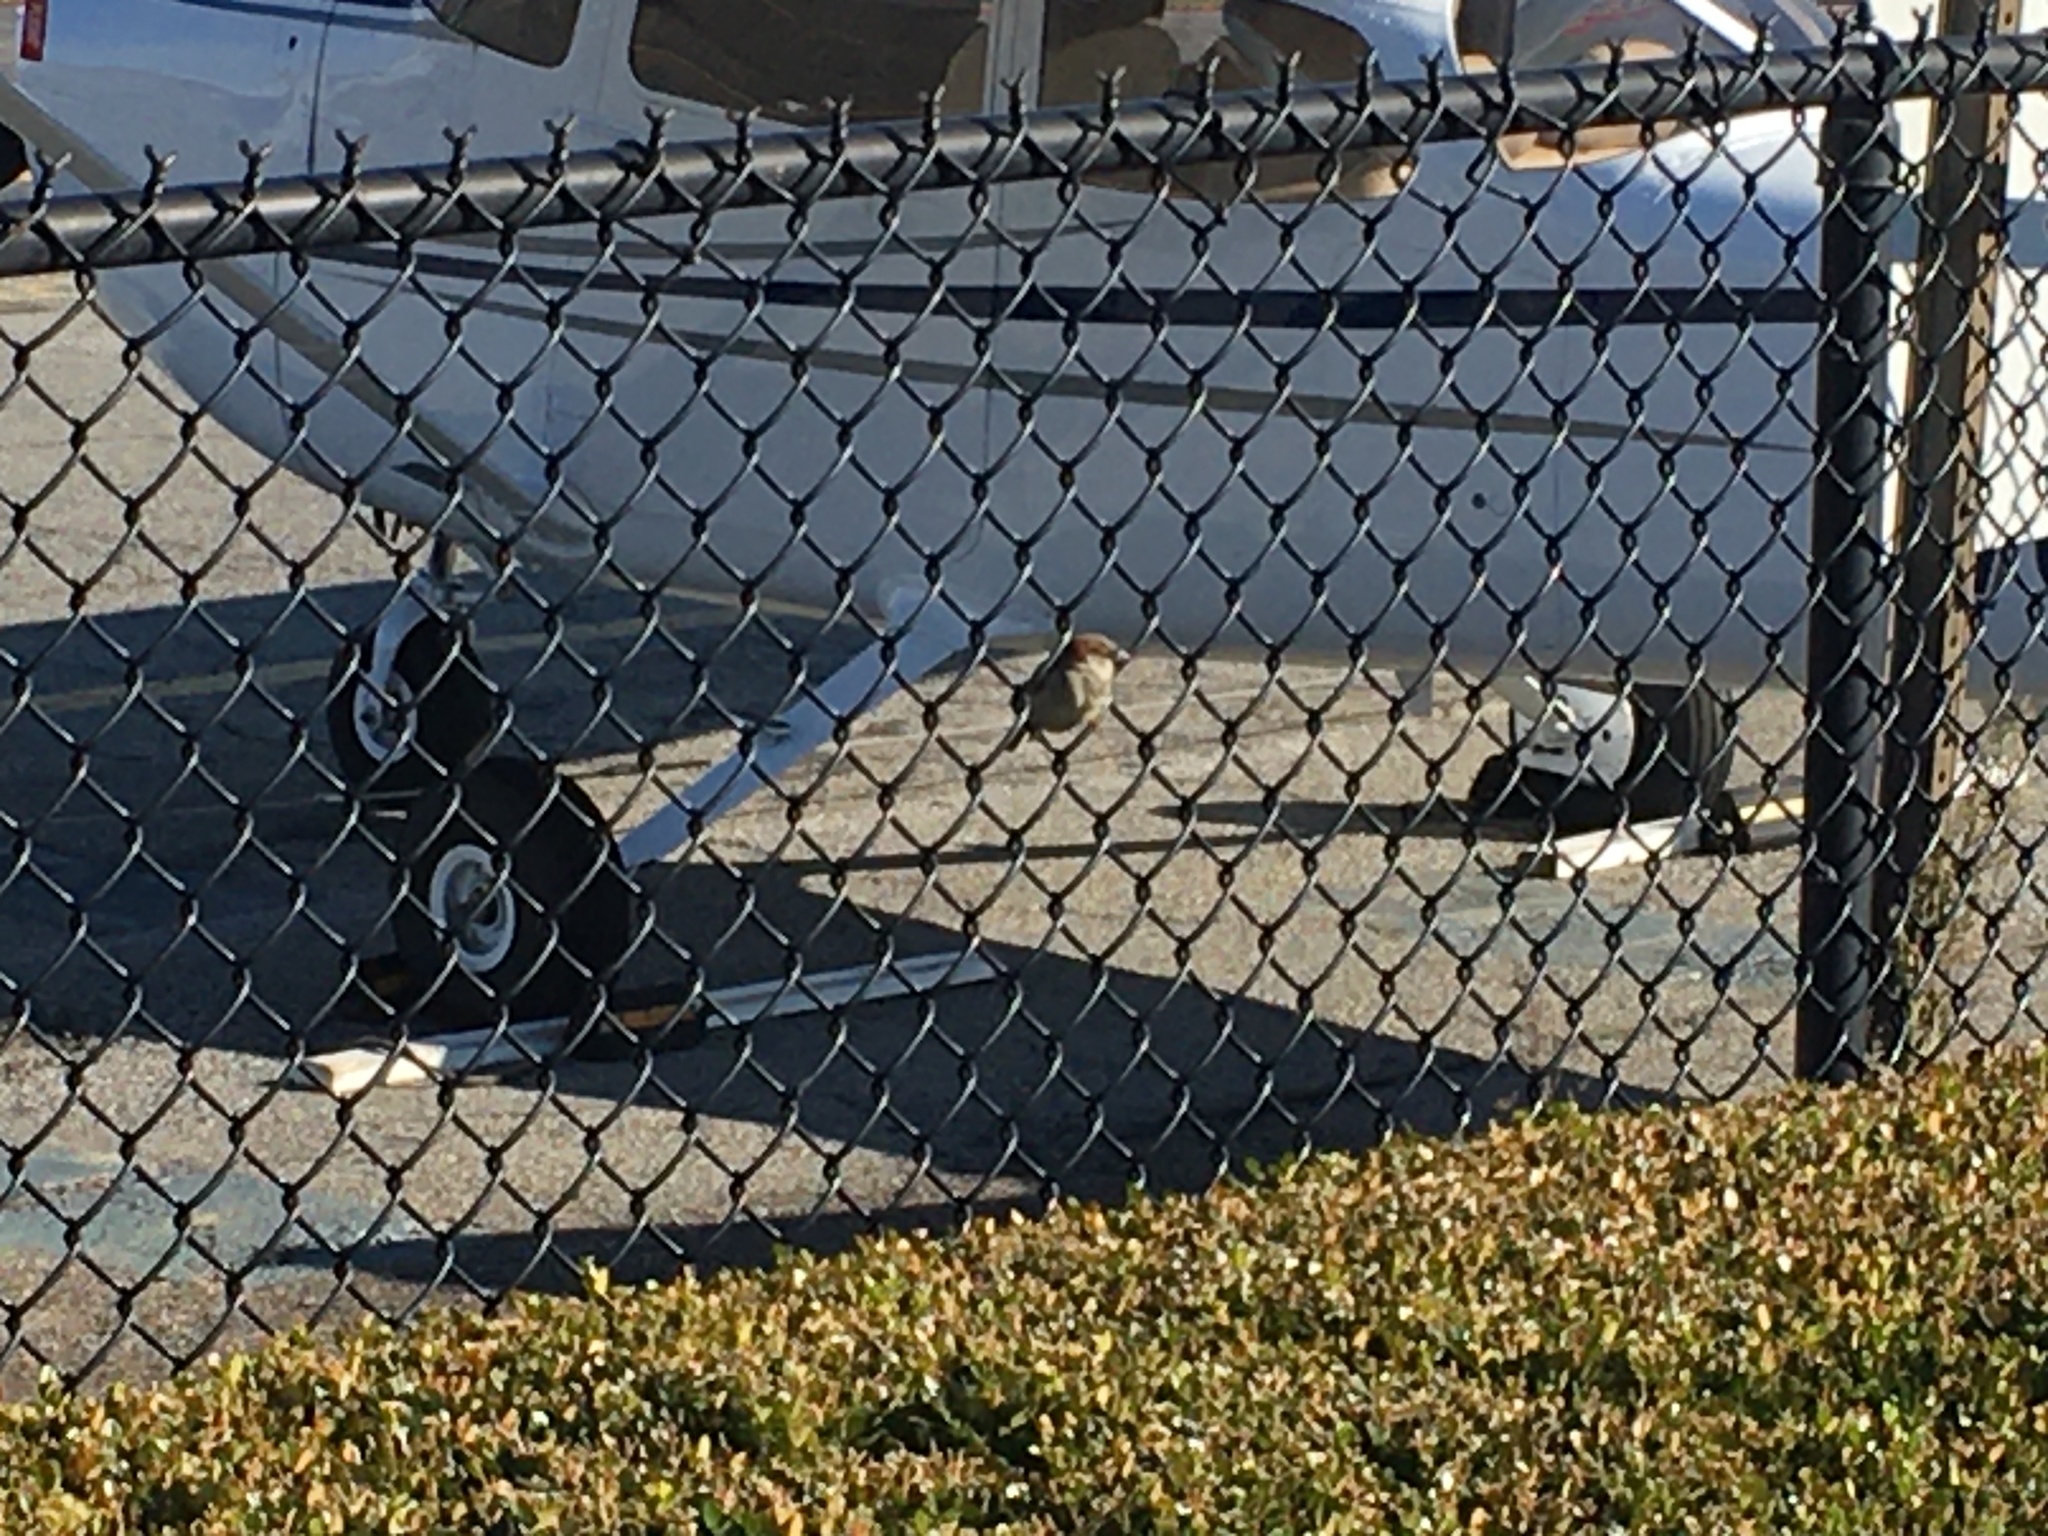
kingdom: Animalia
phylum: Chordata
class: Aves
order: Passeriformes
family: Passeridae
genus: Passer
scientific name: Passer domesticus
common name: House sparrow
